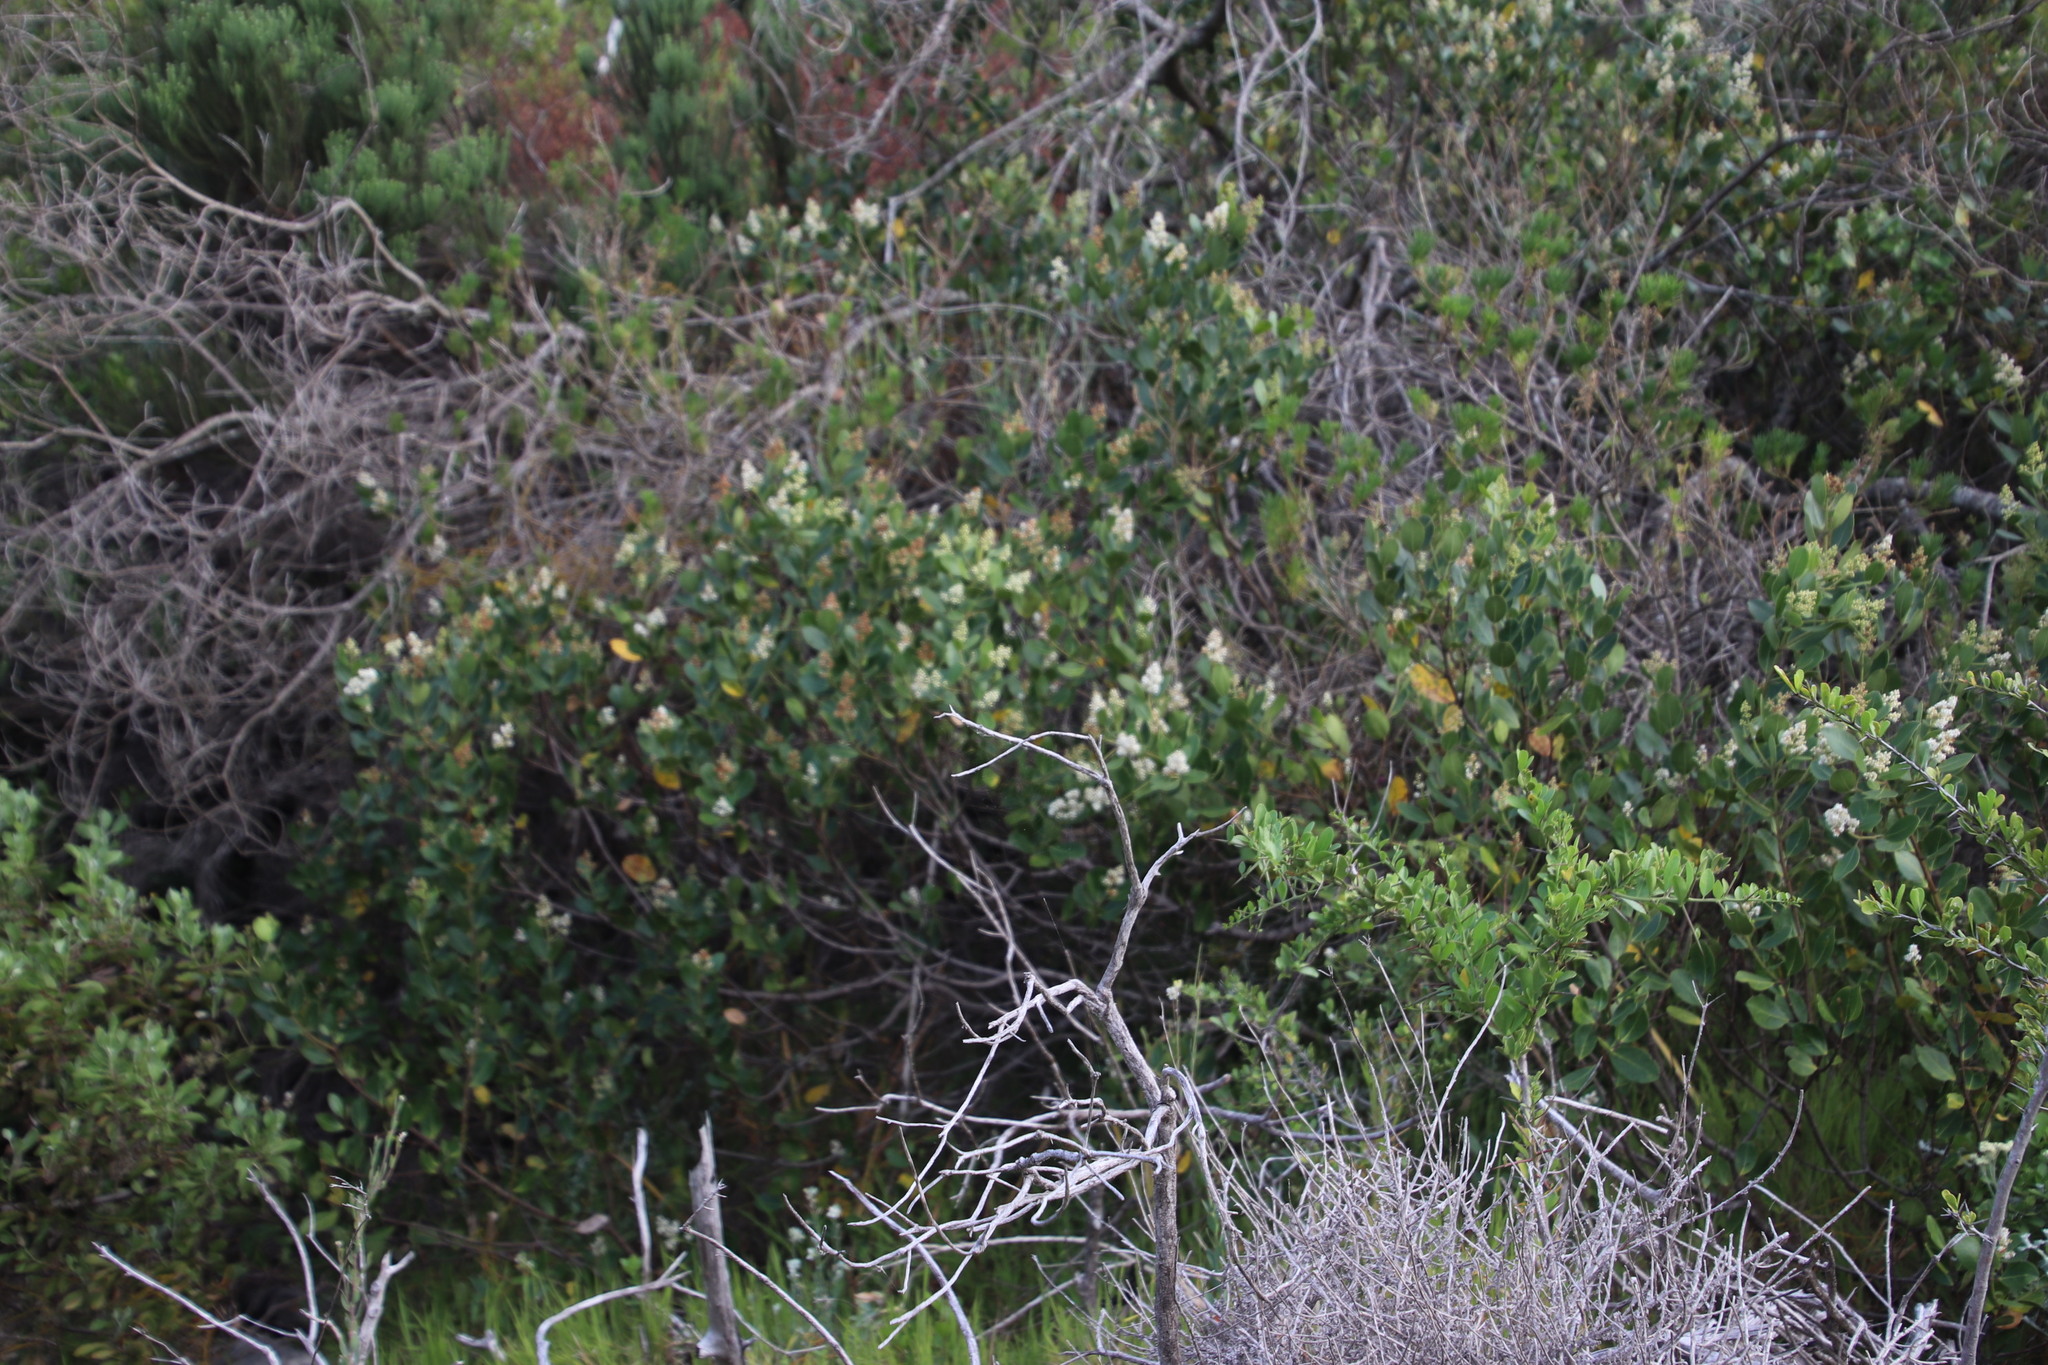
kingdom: Plantae
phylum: Tracheophyta
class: Magnoliopsida
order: Lamiales
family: Oleaceae
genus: Olea
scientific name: Olea capensis
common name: Black ironwood
